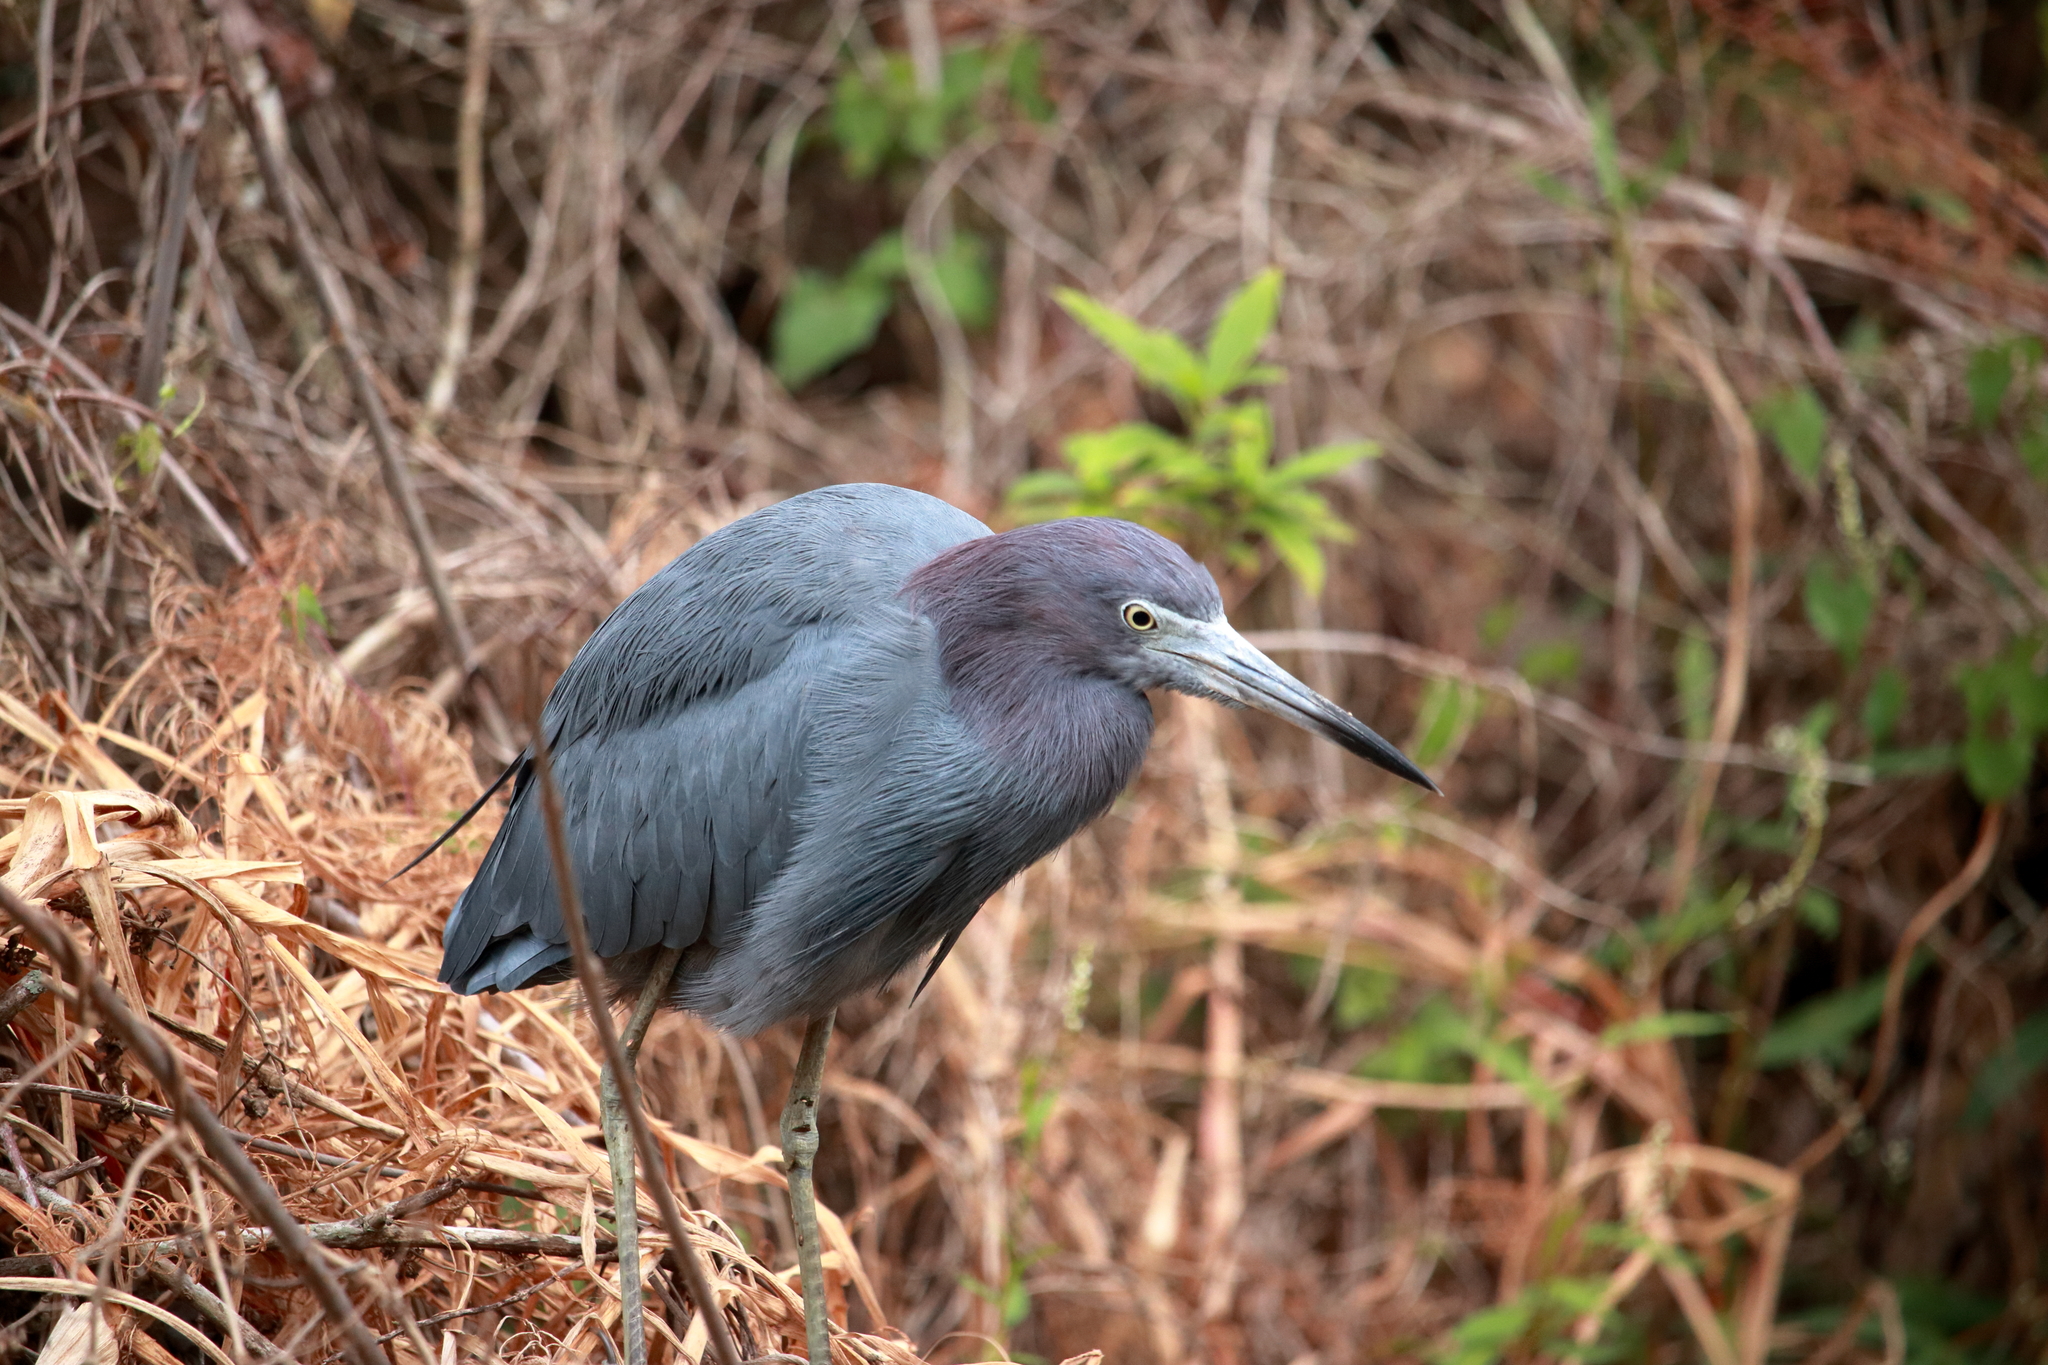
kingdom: Animalia
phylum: Chordata
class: Aves
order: Pelecaniformes
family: Ardeidae
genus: Egretta
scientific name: Egretta caerulea
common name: Little blue heron
